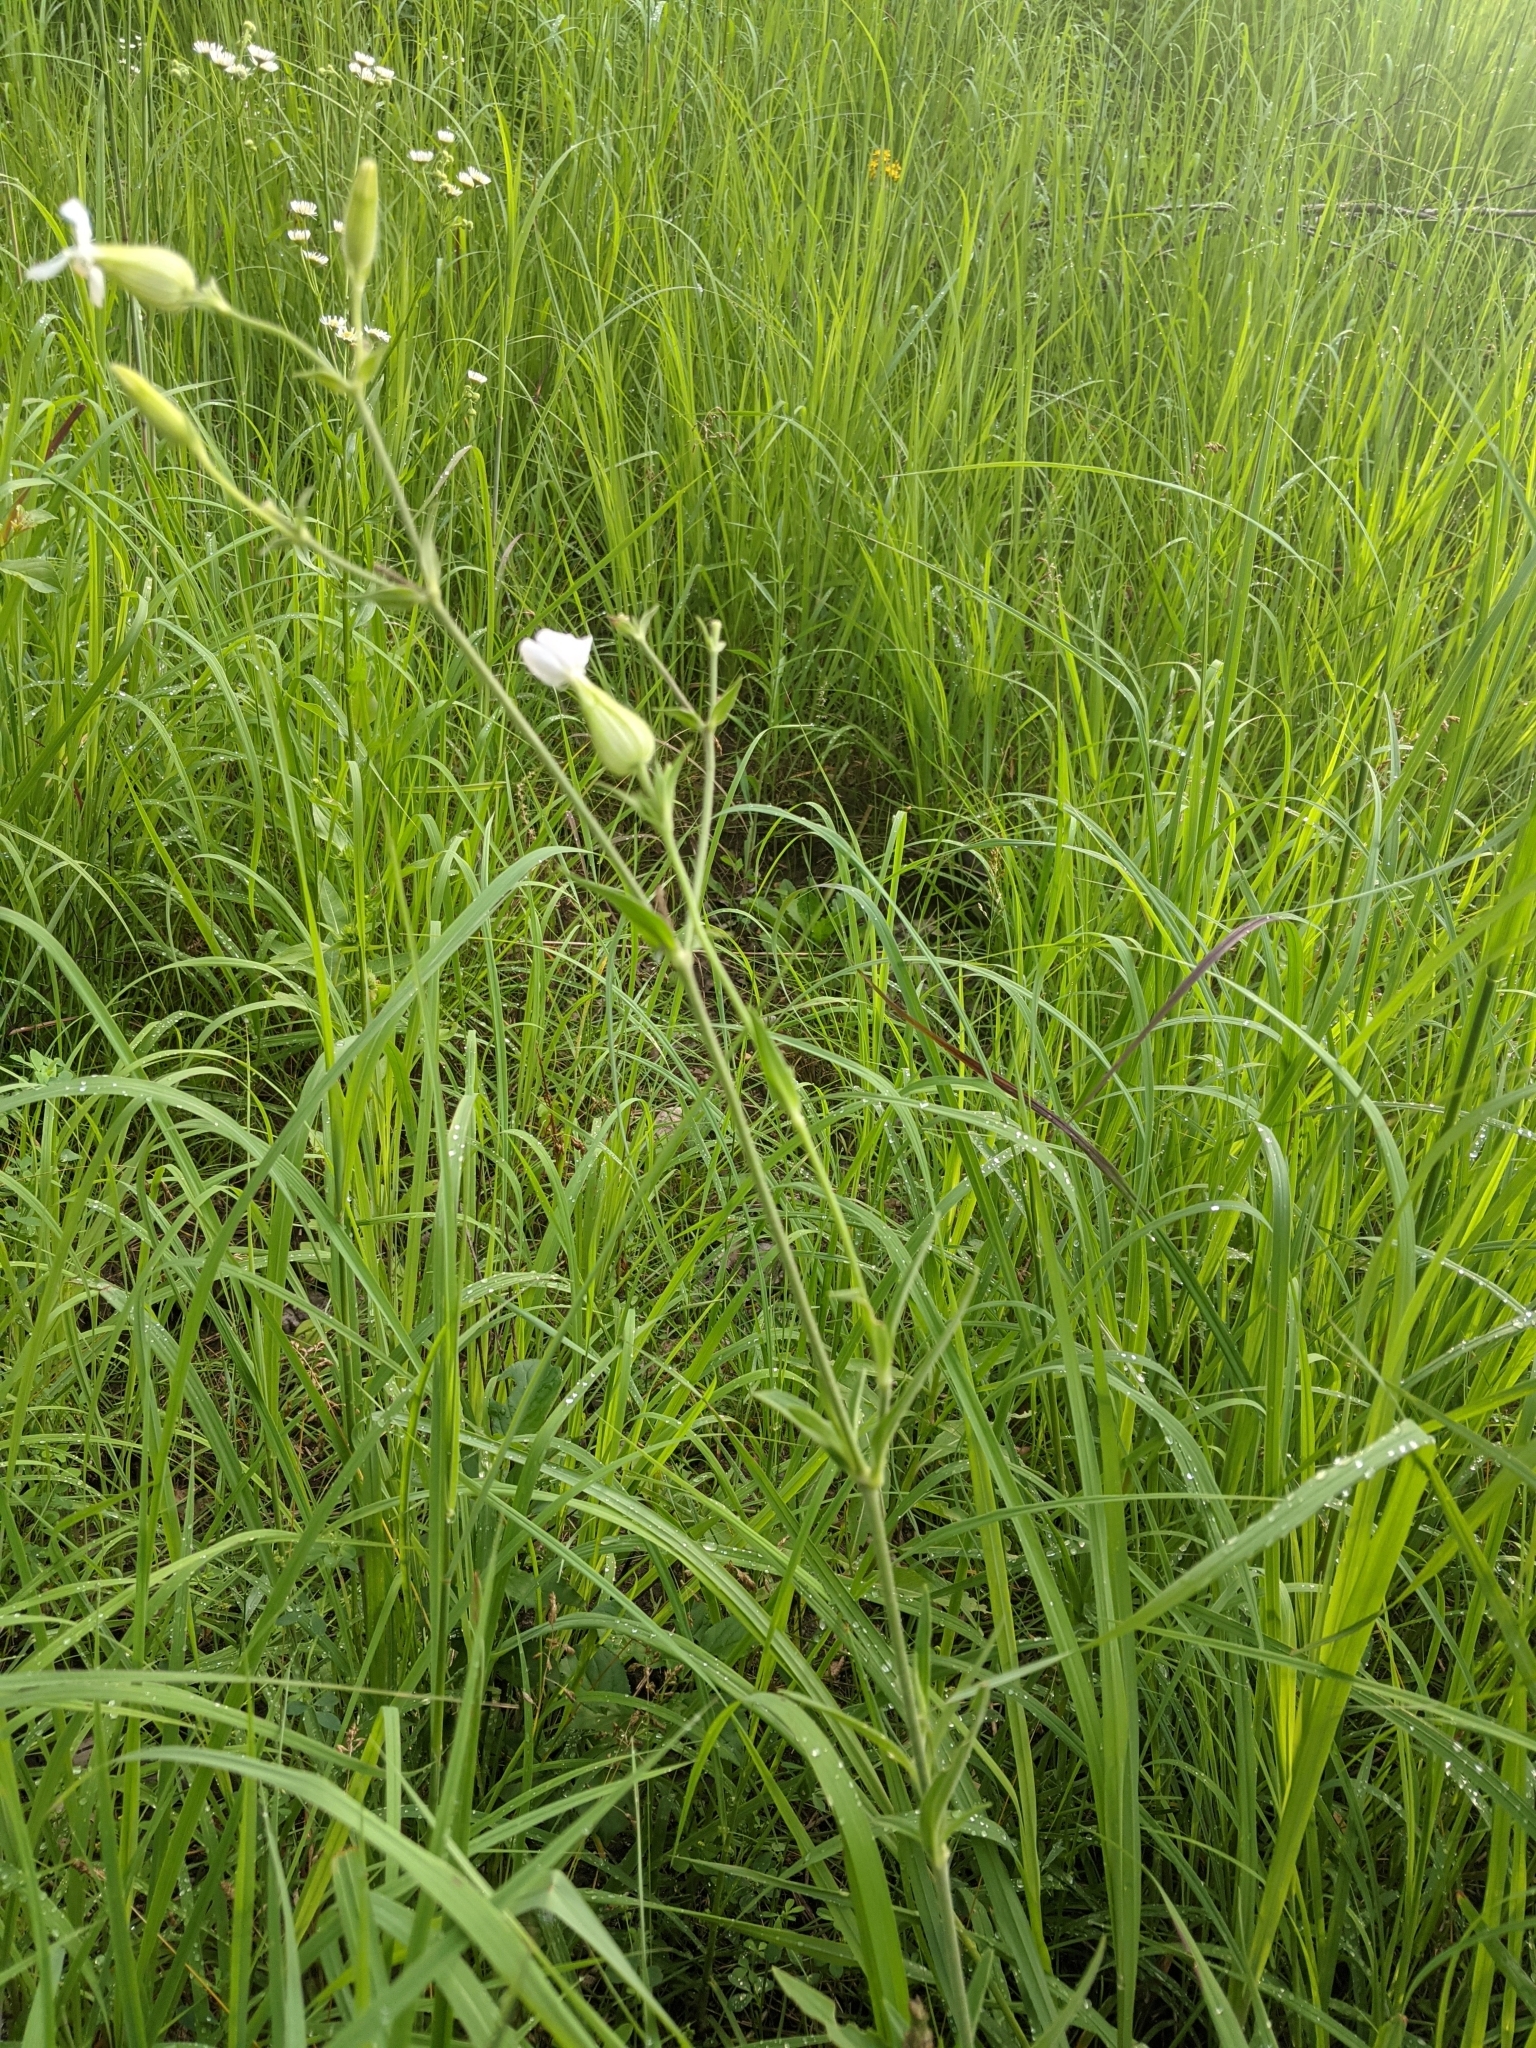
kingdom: Plantae
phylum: Tracheophyta
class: Magnoliopsida
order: Caryophyllales
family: Caryophyllaceae
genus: Silene
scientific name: Silene latifolia
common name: White campion
